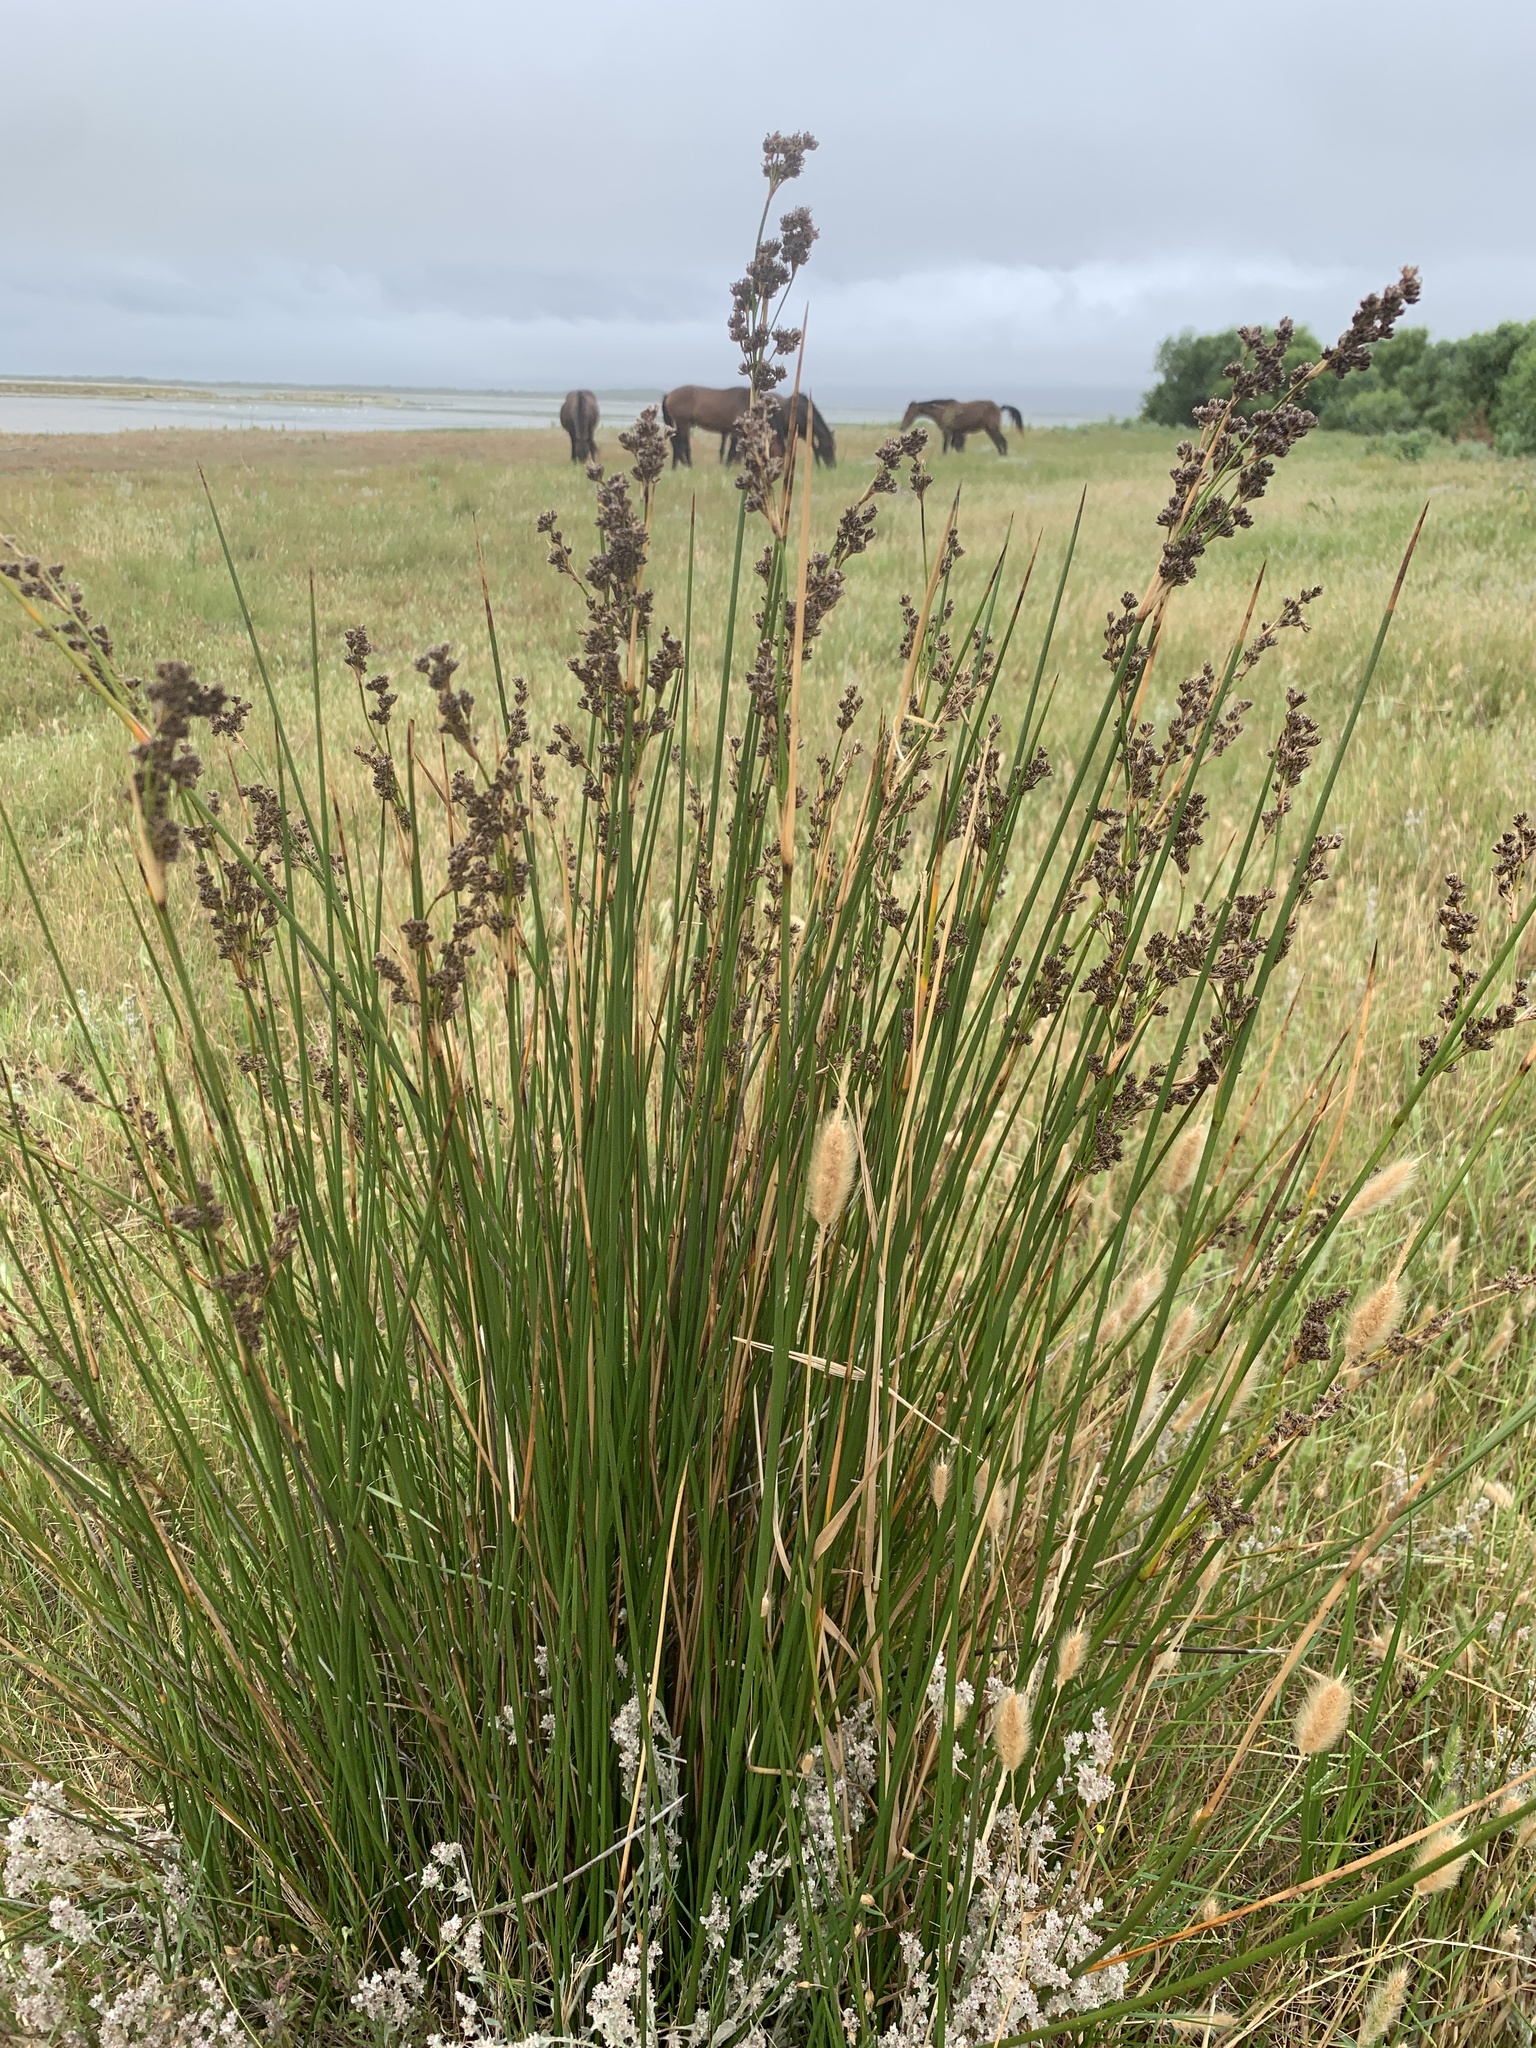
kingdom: Plantae
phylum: Tracheophyta
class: Liliopsida
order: Poales
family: Juncaceae
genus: Juncus
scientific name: Juncus kraussii
